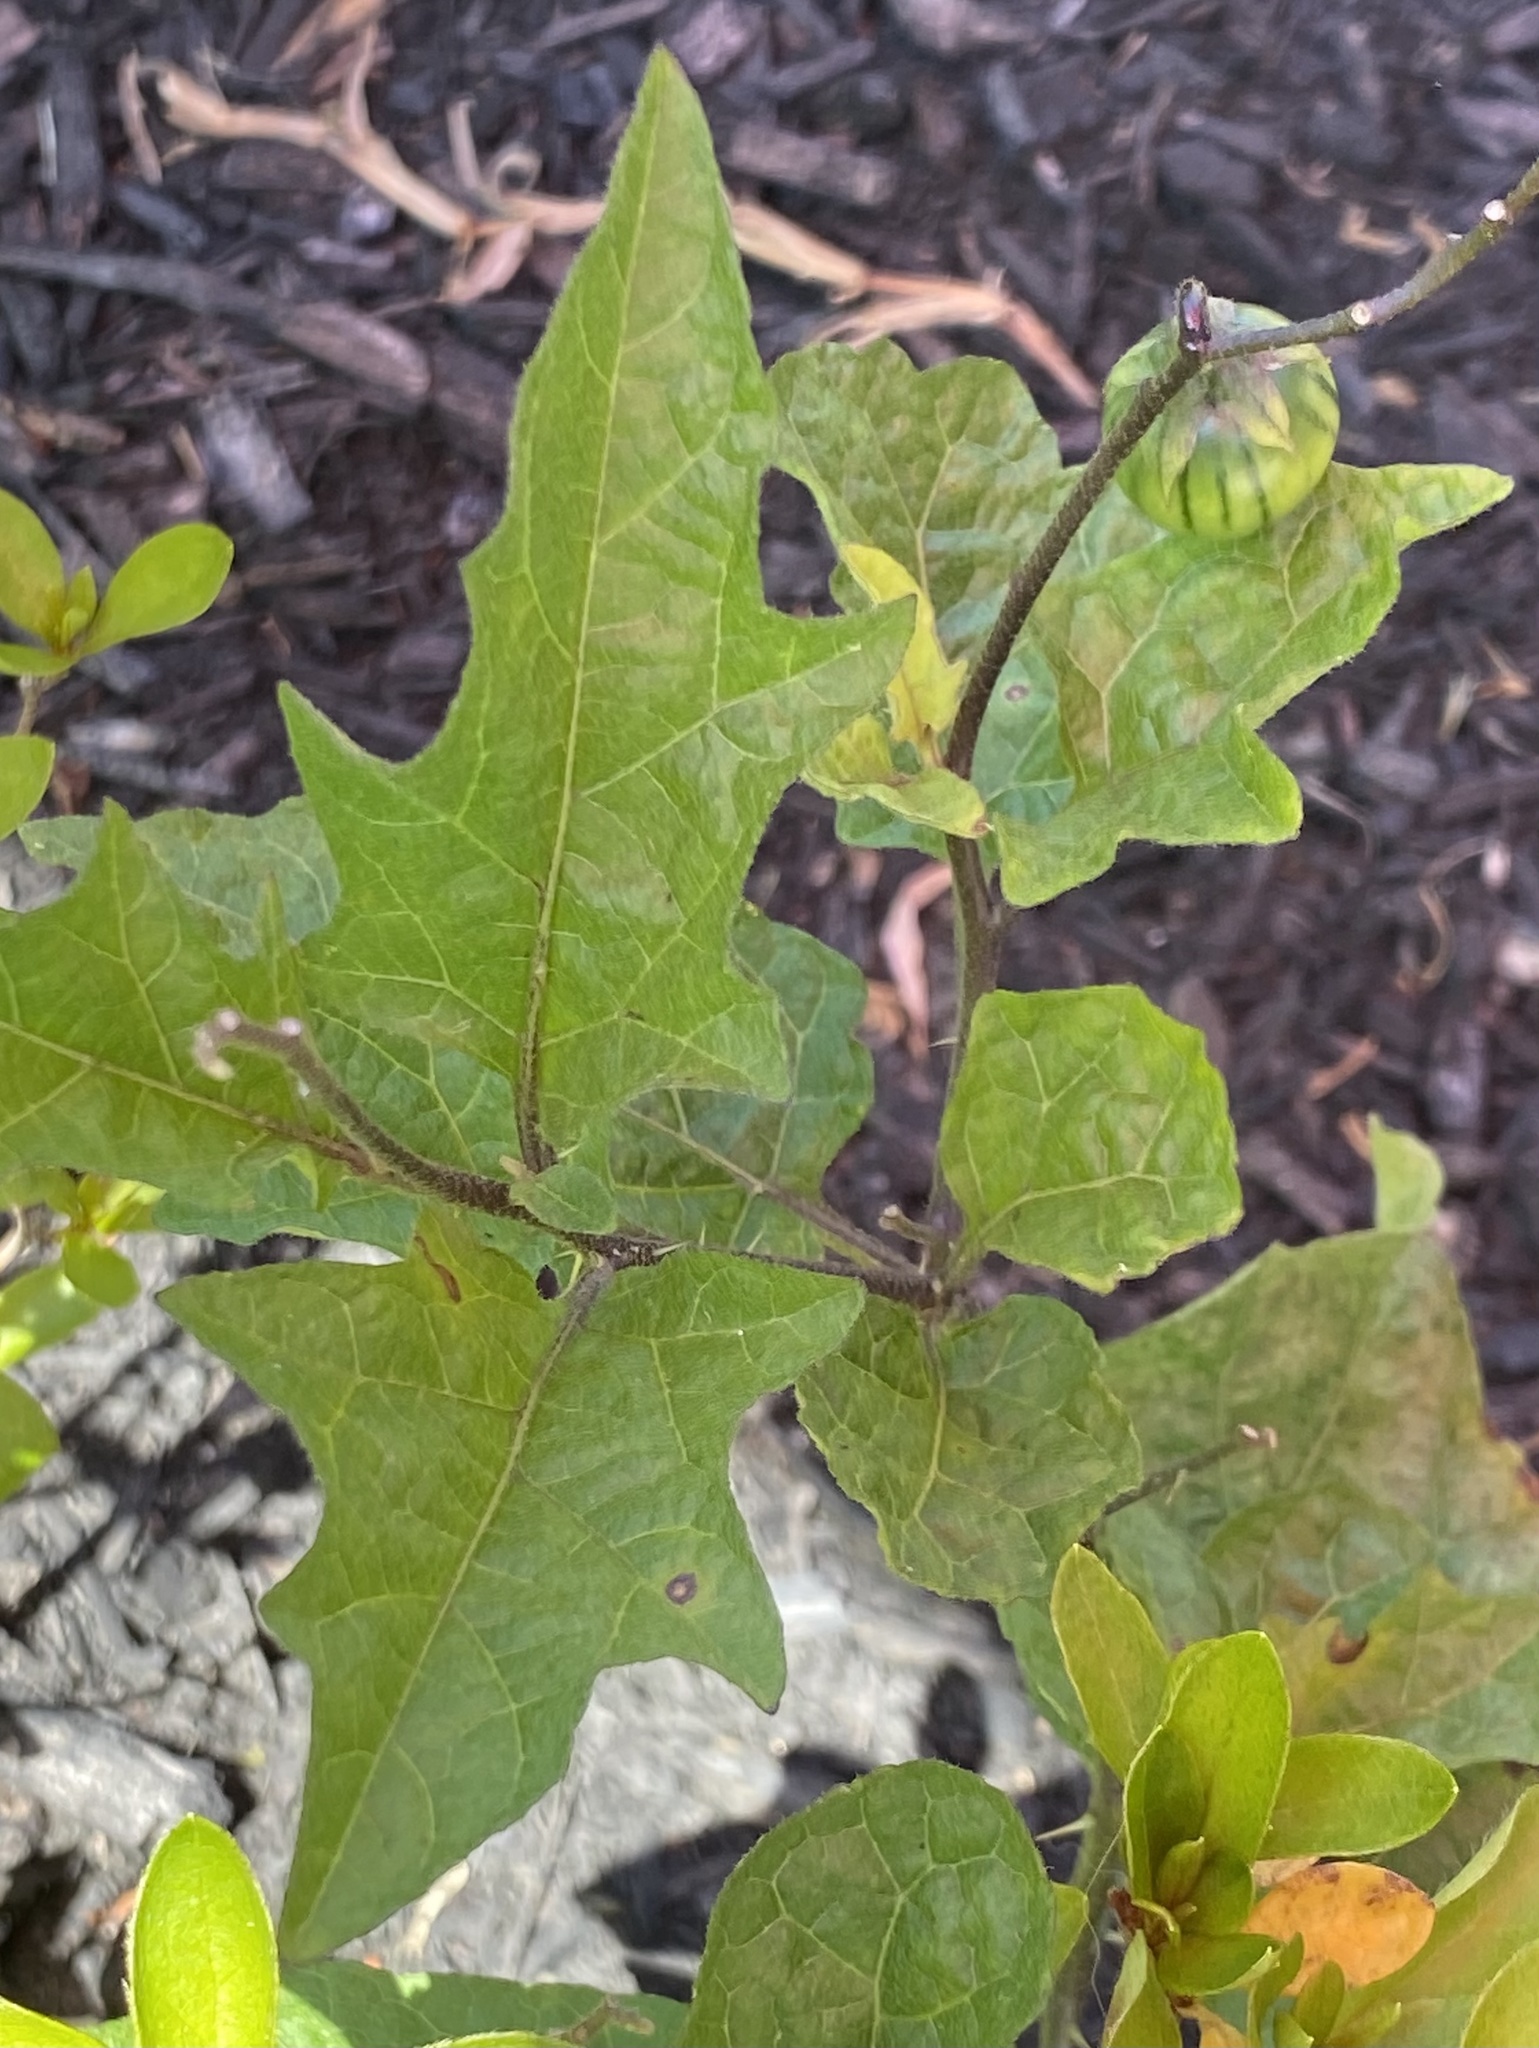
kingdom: Plantae
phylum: Tracheophyta
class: Magnoliopsida
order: Solanales
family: Solanaceae
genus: Solanum
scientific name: Solanum carolinense
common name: Horse-nettle
